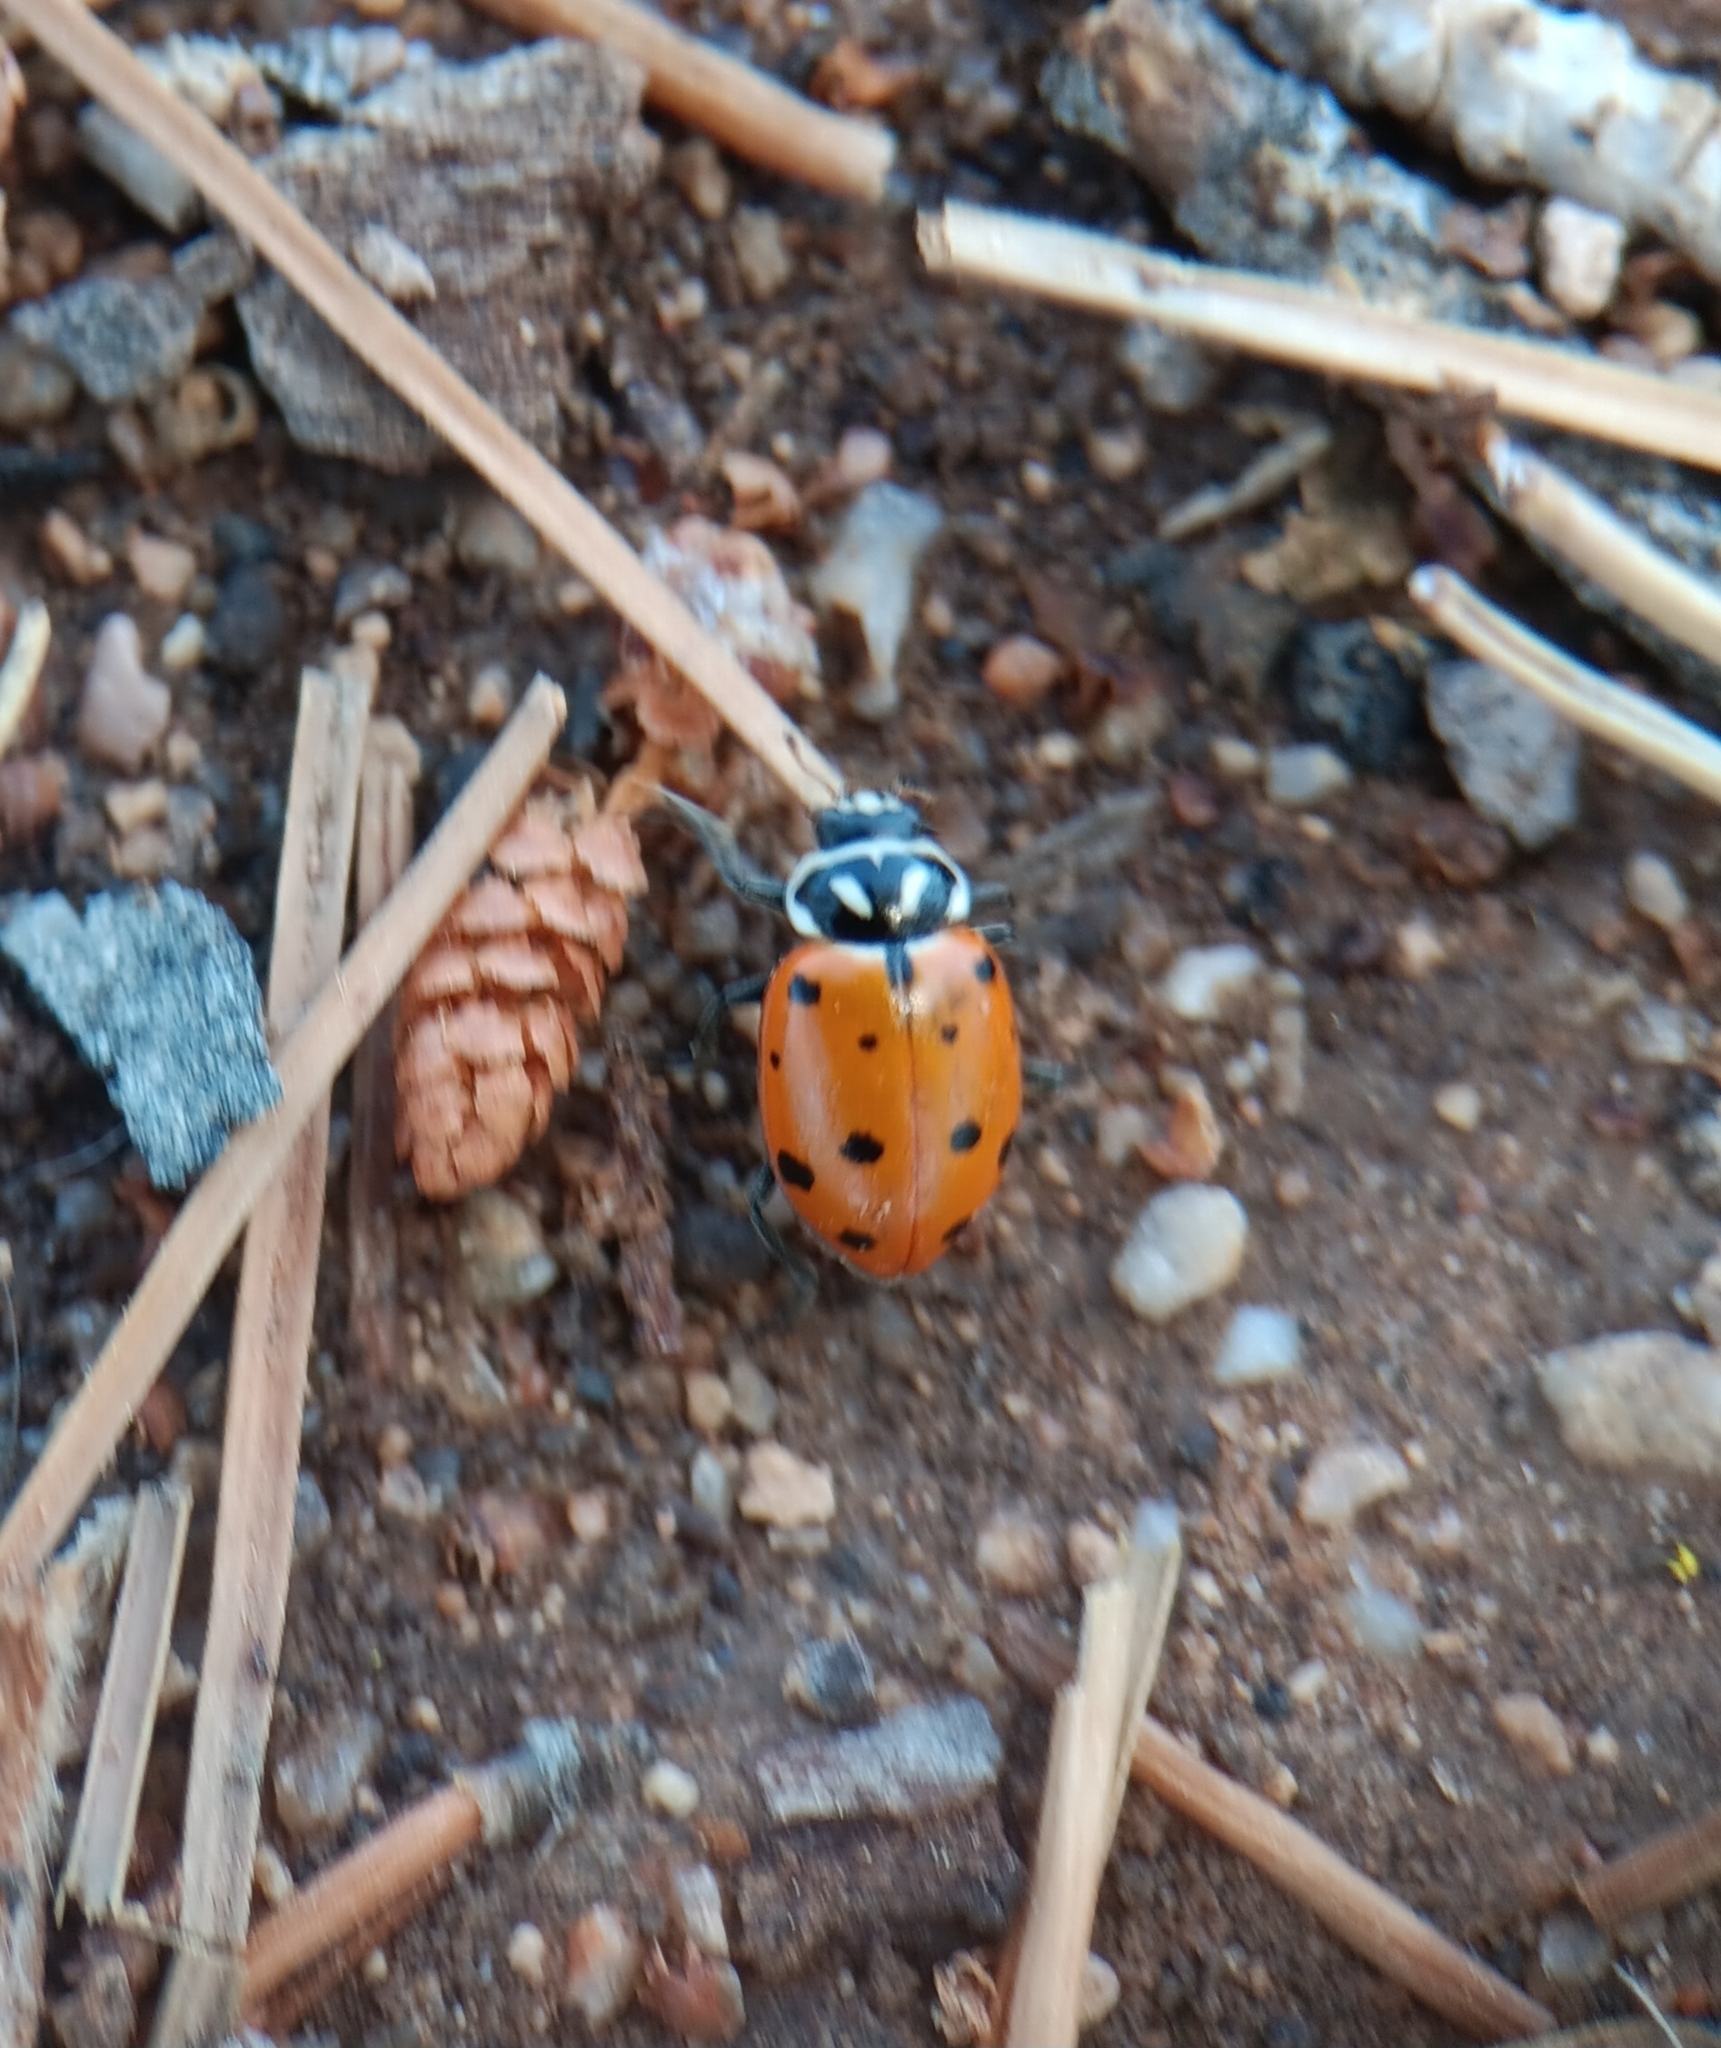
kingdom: Animalia
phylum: Arthropoda
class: Insecta
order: Coleoptera
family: Coccinellidae
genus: Hippodamia
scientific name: Hippodamia convergens
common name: Convergent lady beetle
